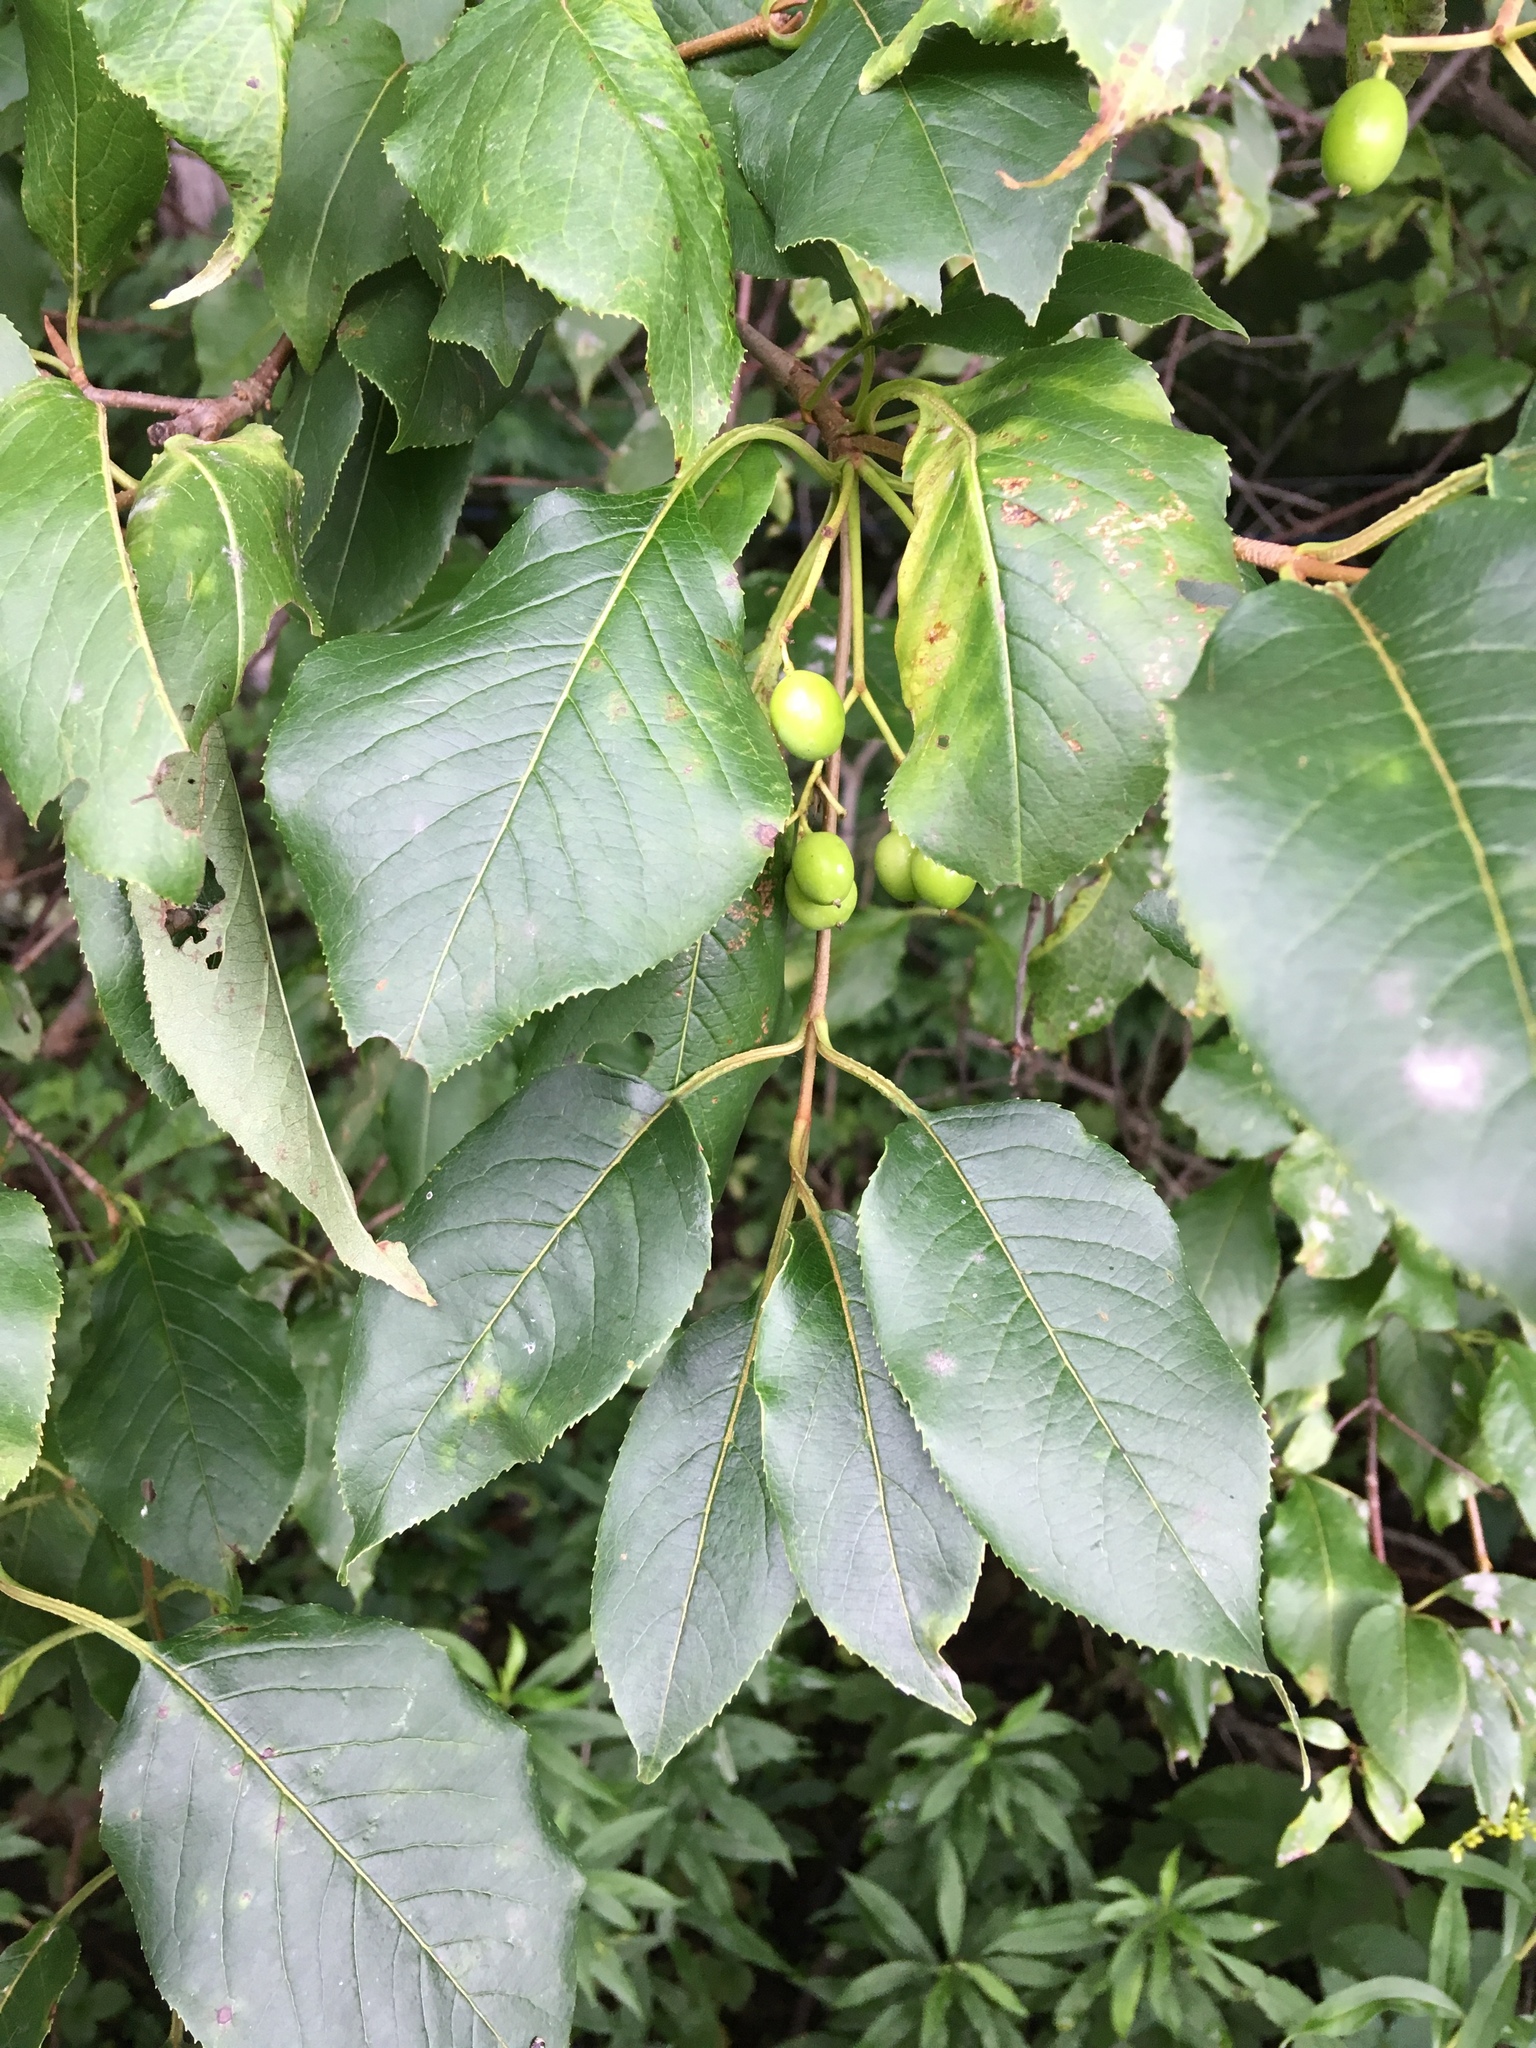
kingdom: Plantae
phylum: Tracheophyta
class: Magnoliopsida
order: Dipsacales
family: Viburnaceae
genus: Viburnum
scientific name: Viburnum lentago
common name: Black haw
